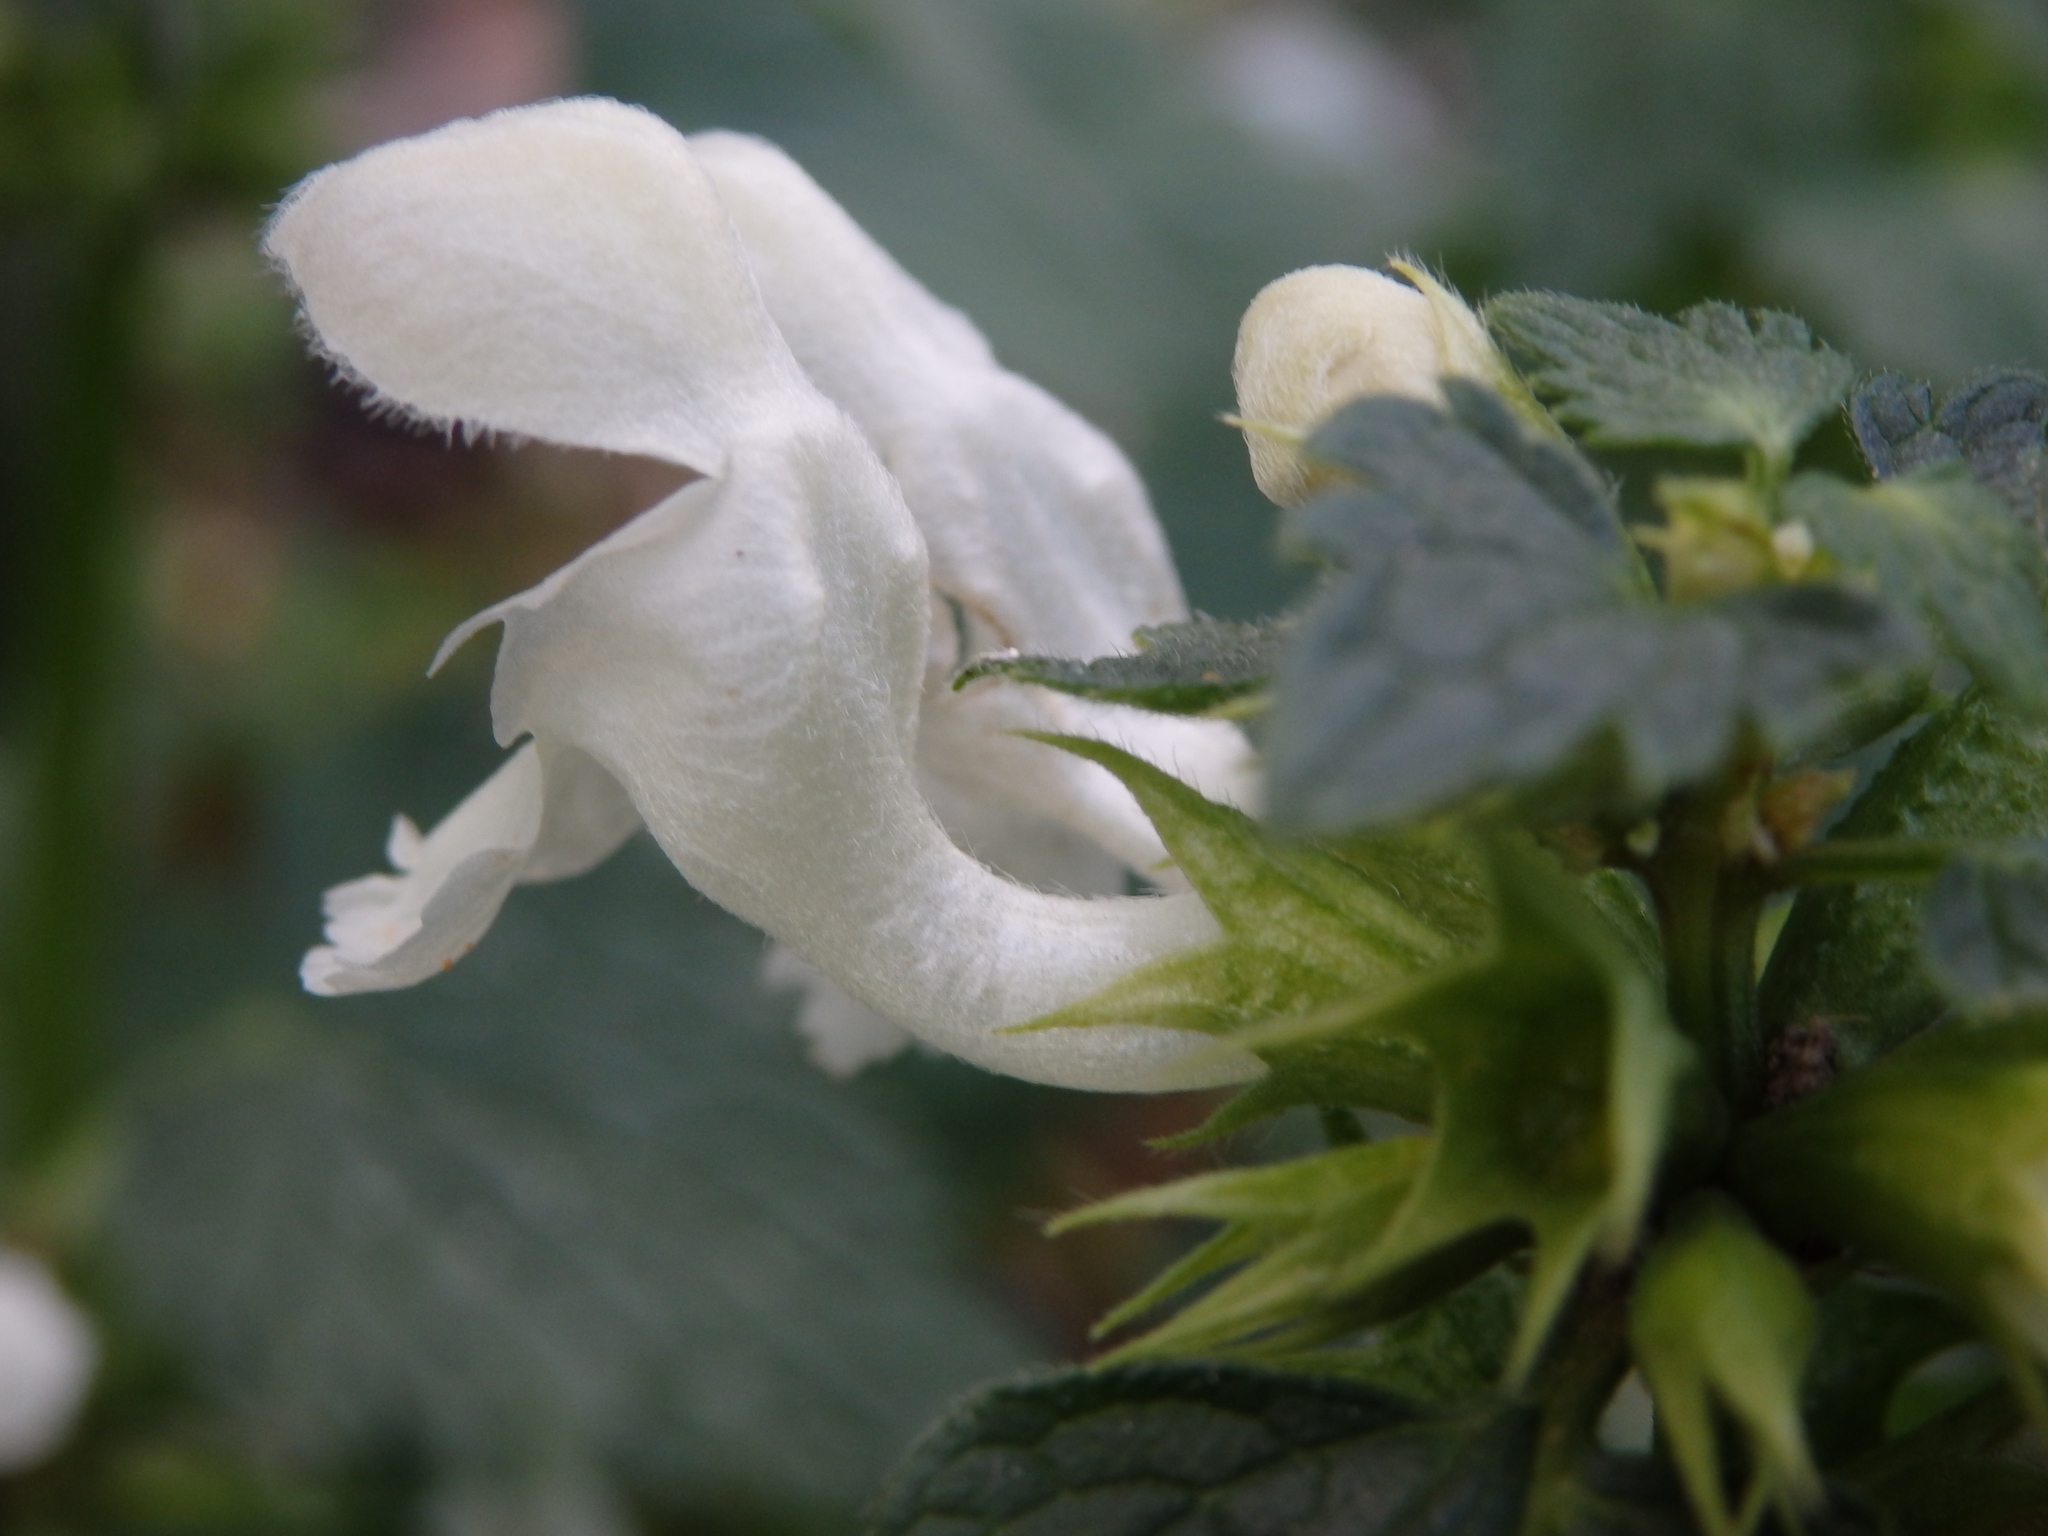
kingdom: Plantae
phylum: Tracheophyta
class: Magnoliopsida
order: Lamiales
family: Lamiaceae
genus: Lamium
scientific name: Lamium maculatum
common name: Spotted dead-nettle
